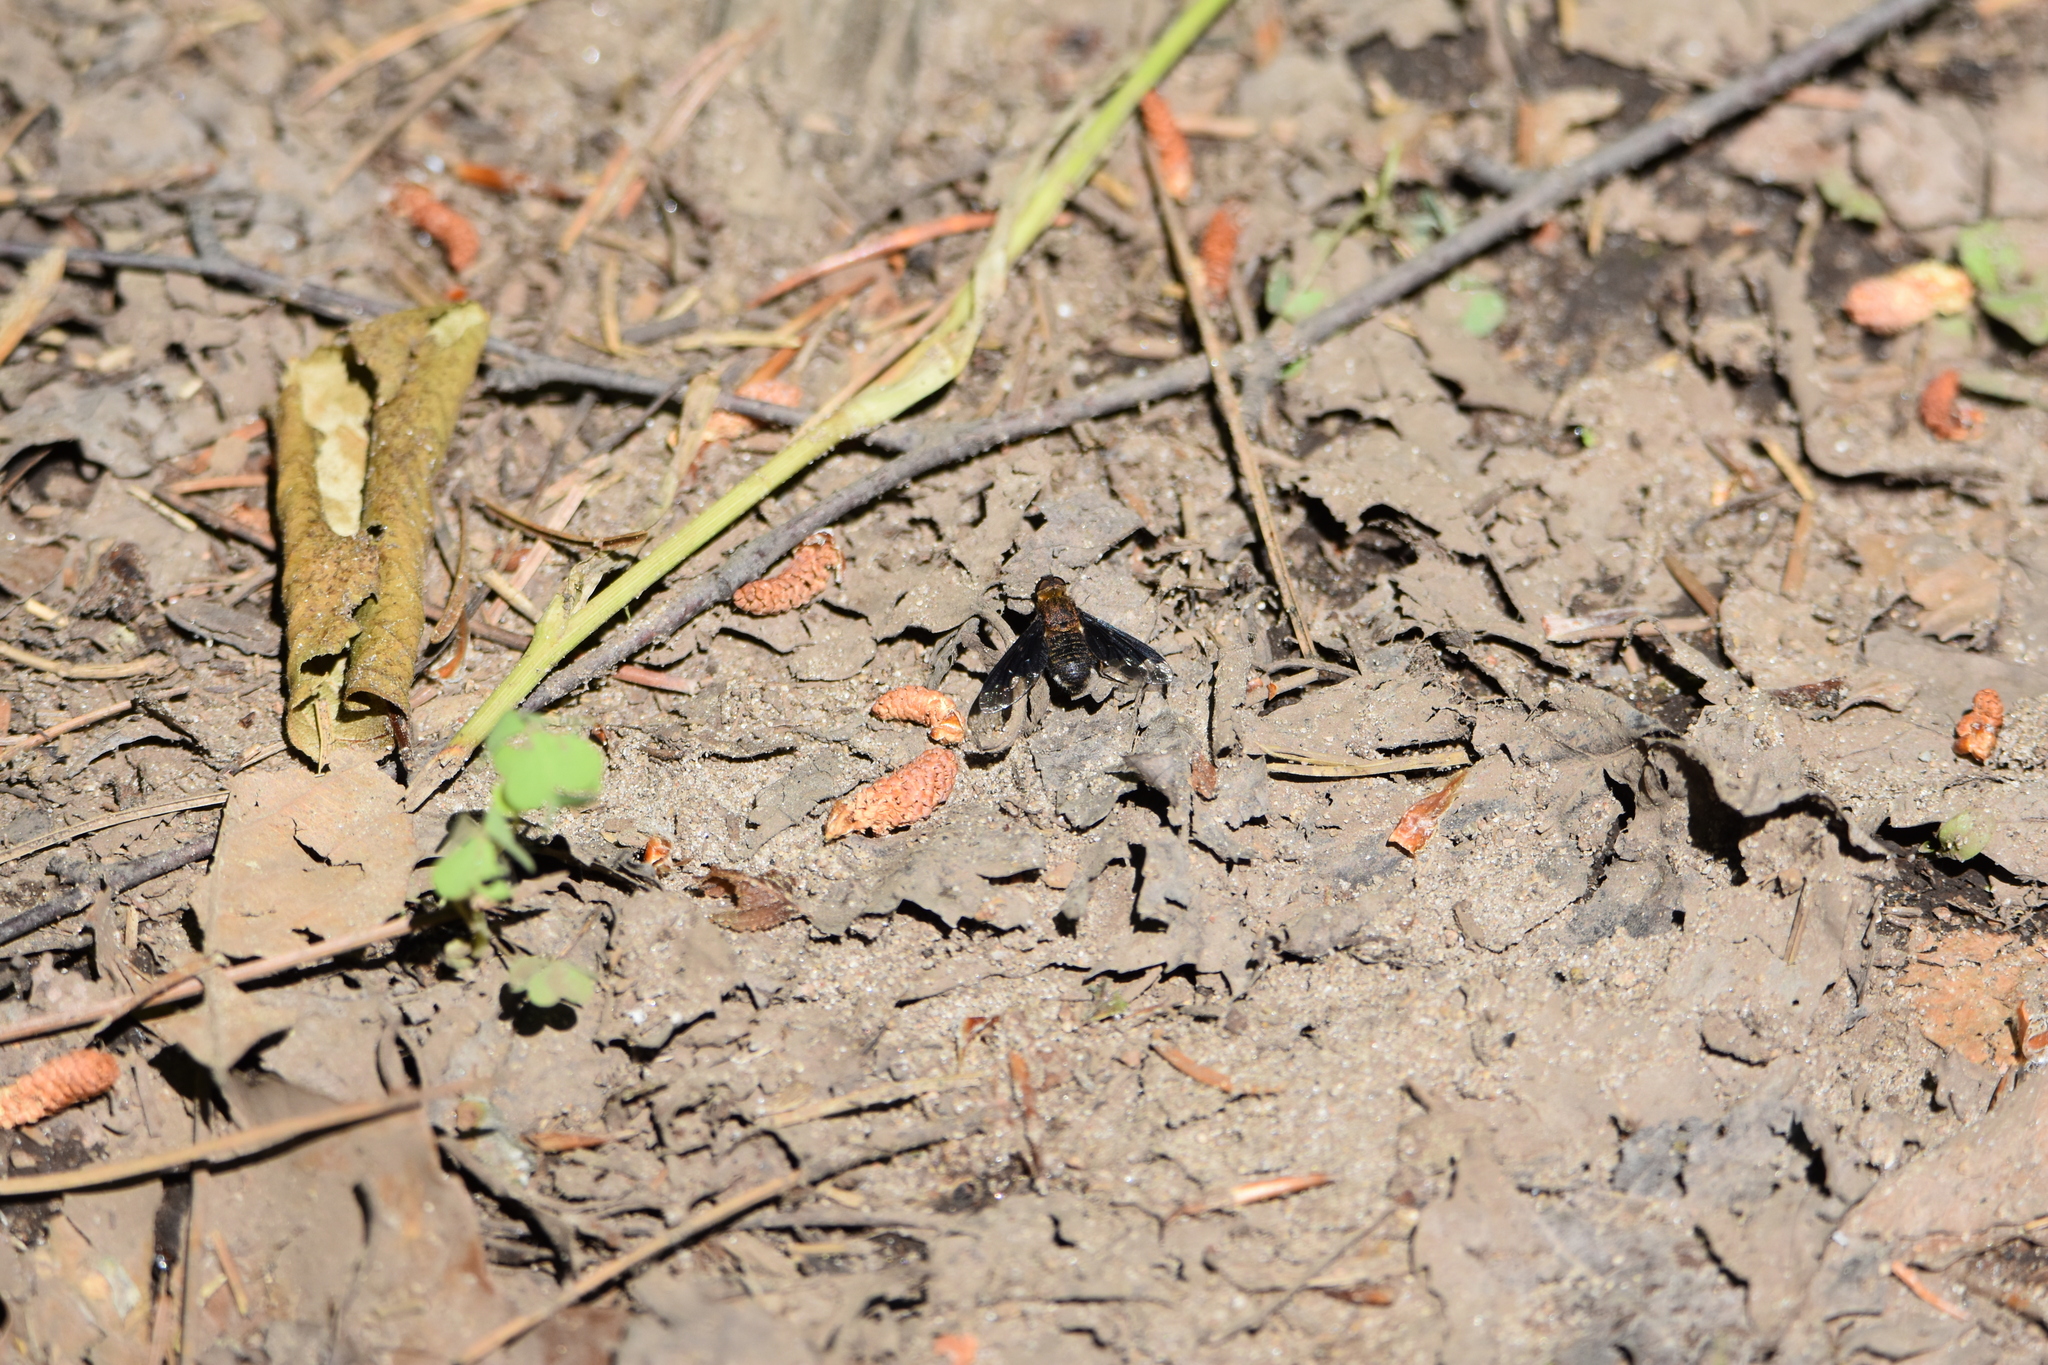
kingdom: Animalia
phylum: Arthropoda
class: Insecta
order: Diptera
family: Bombyliidae
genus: Hemipenthes
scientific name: Hemipenthes webberi
